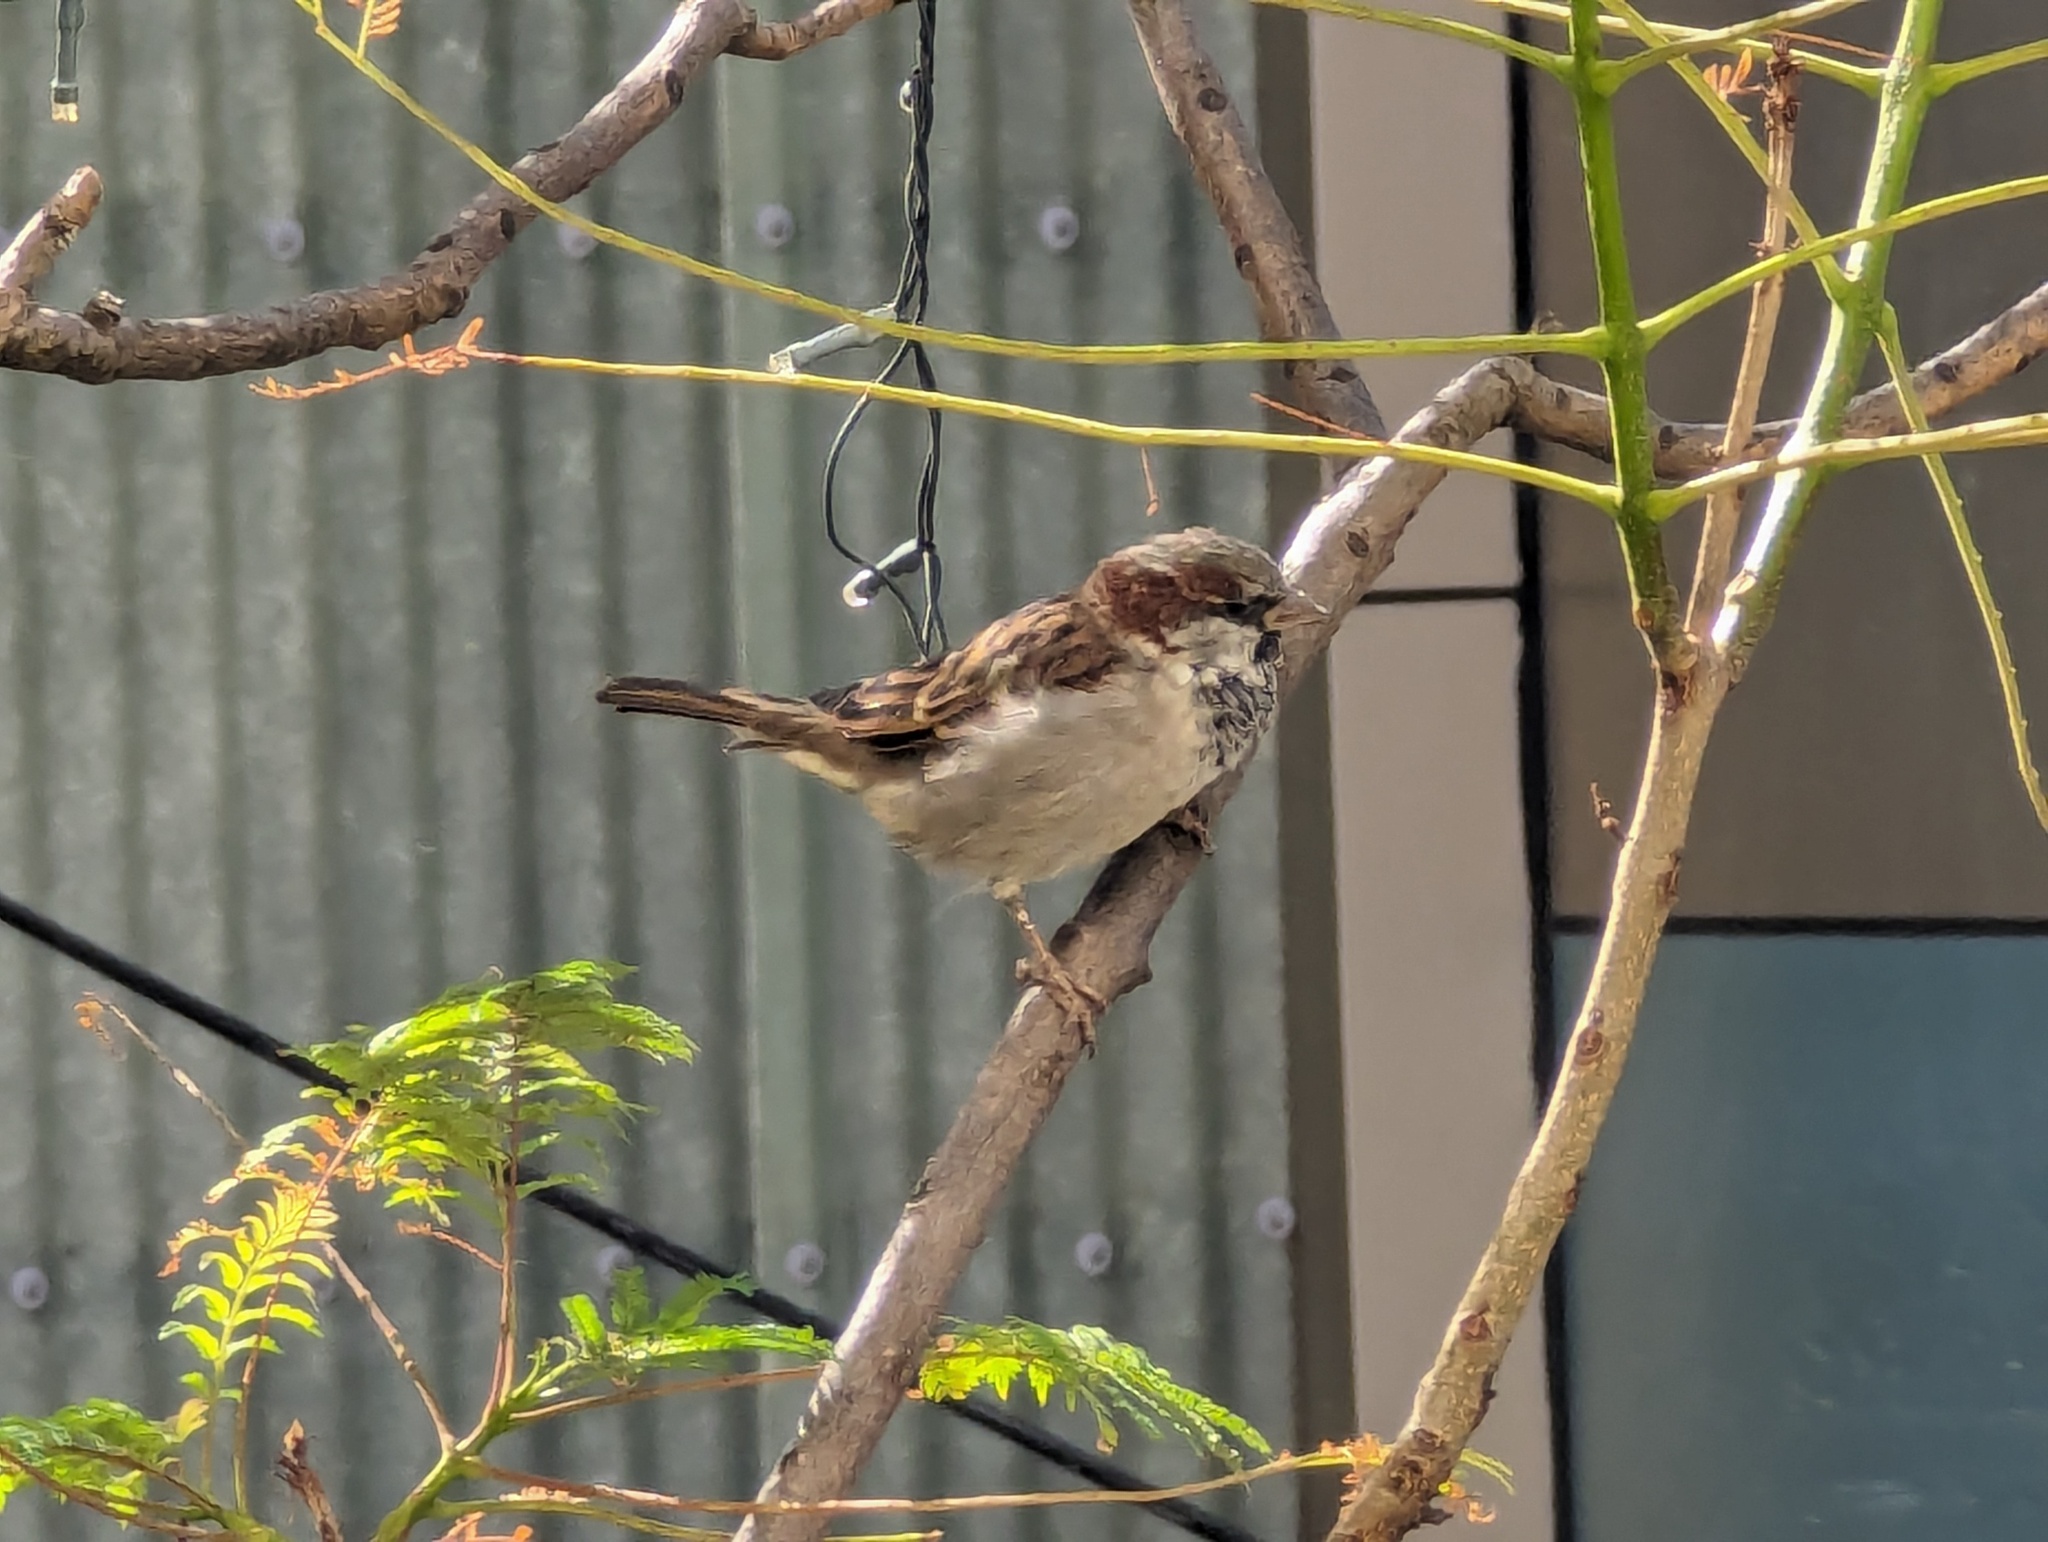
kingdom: Animalia
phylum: Chordata
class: Aves
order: Passeriformes
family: Passeridae
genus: Passer
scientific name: Passer domesticus
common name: House sparrow
